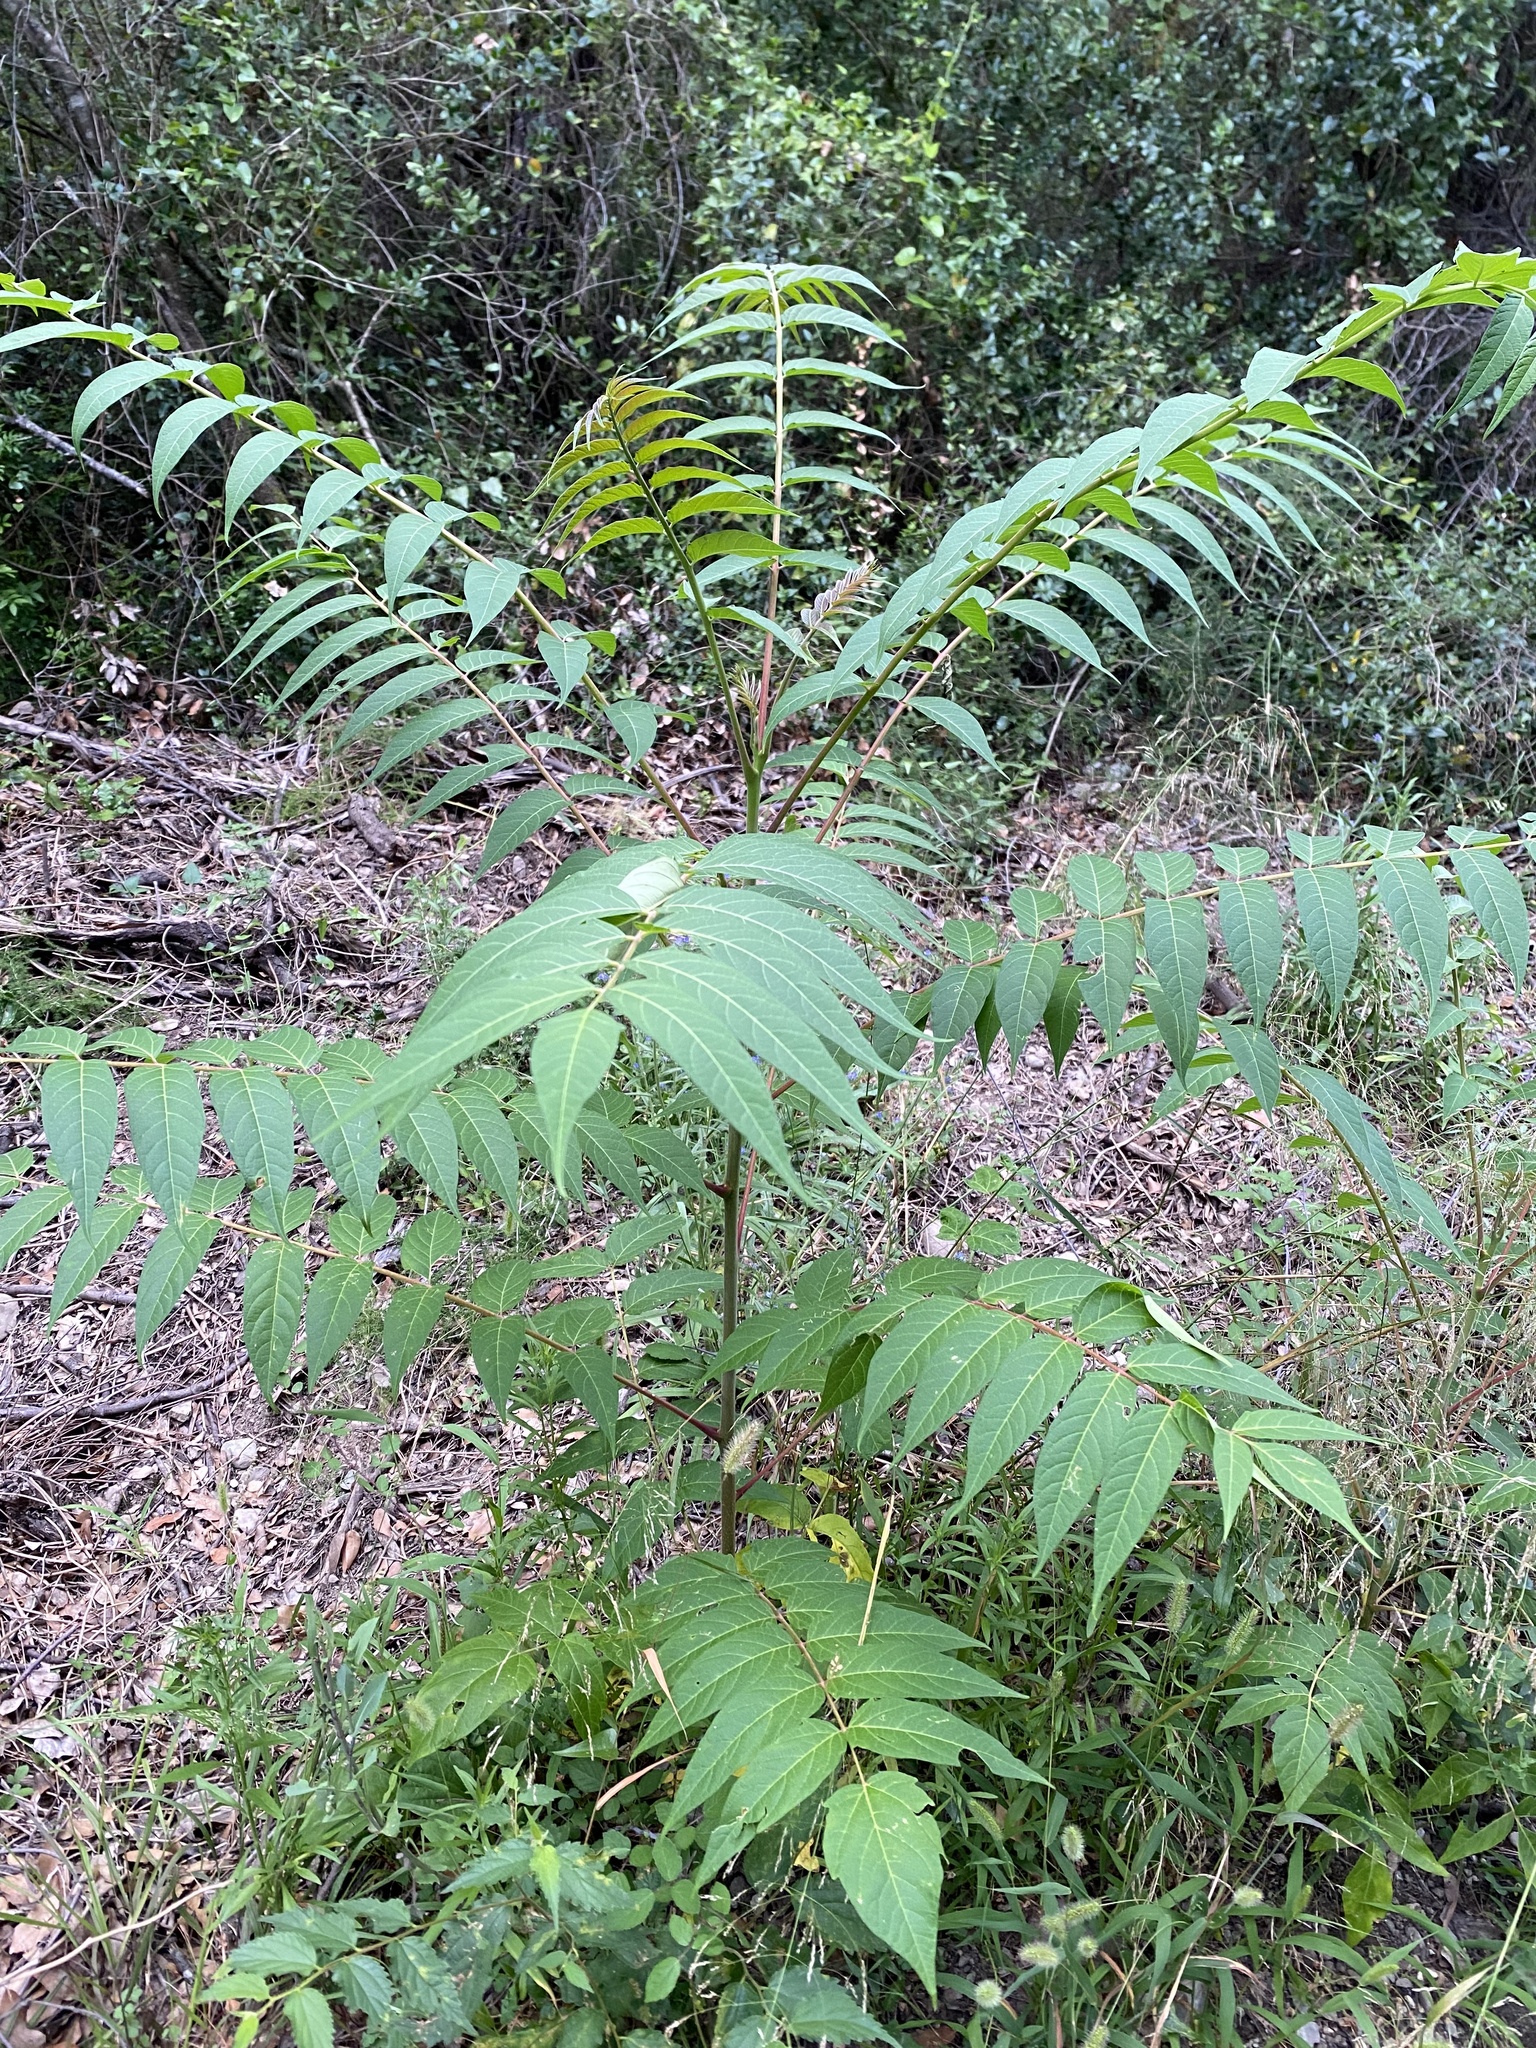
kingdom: Plantae
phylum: Tracheophyta
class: Magnoliopsida
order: Sapindales
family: Simaroubaceae
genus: Ailanthus
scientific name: Ailanthus altissima
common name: Tree-of-heaven
